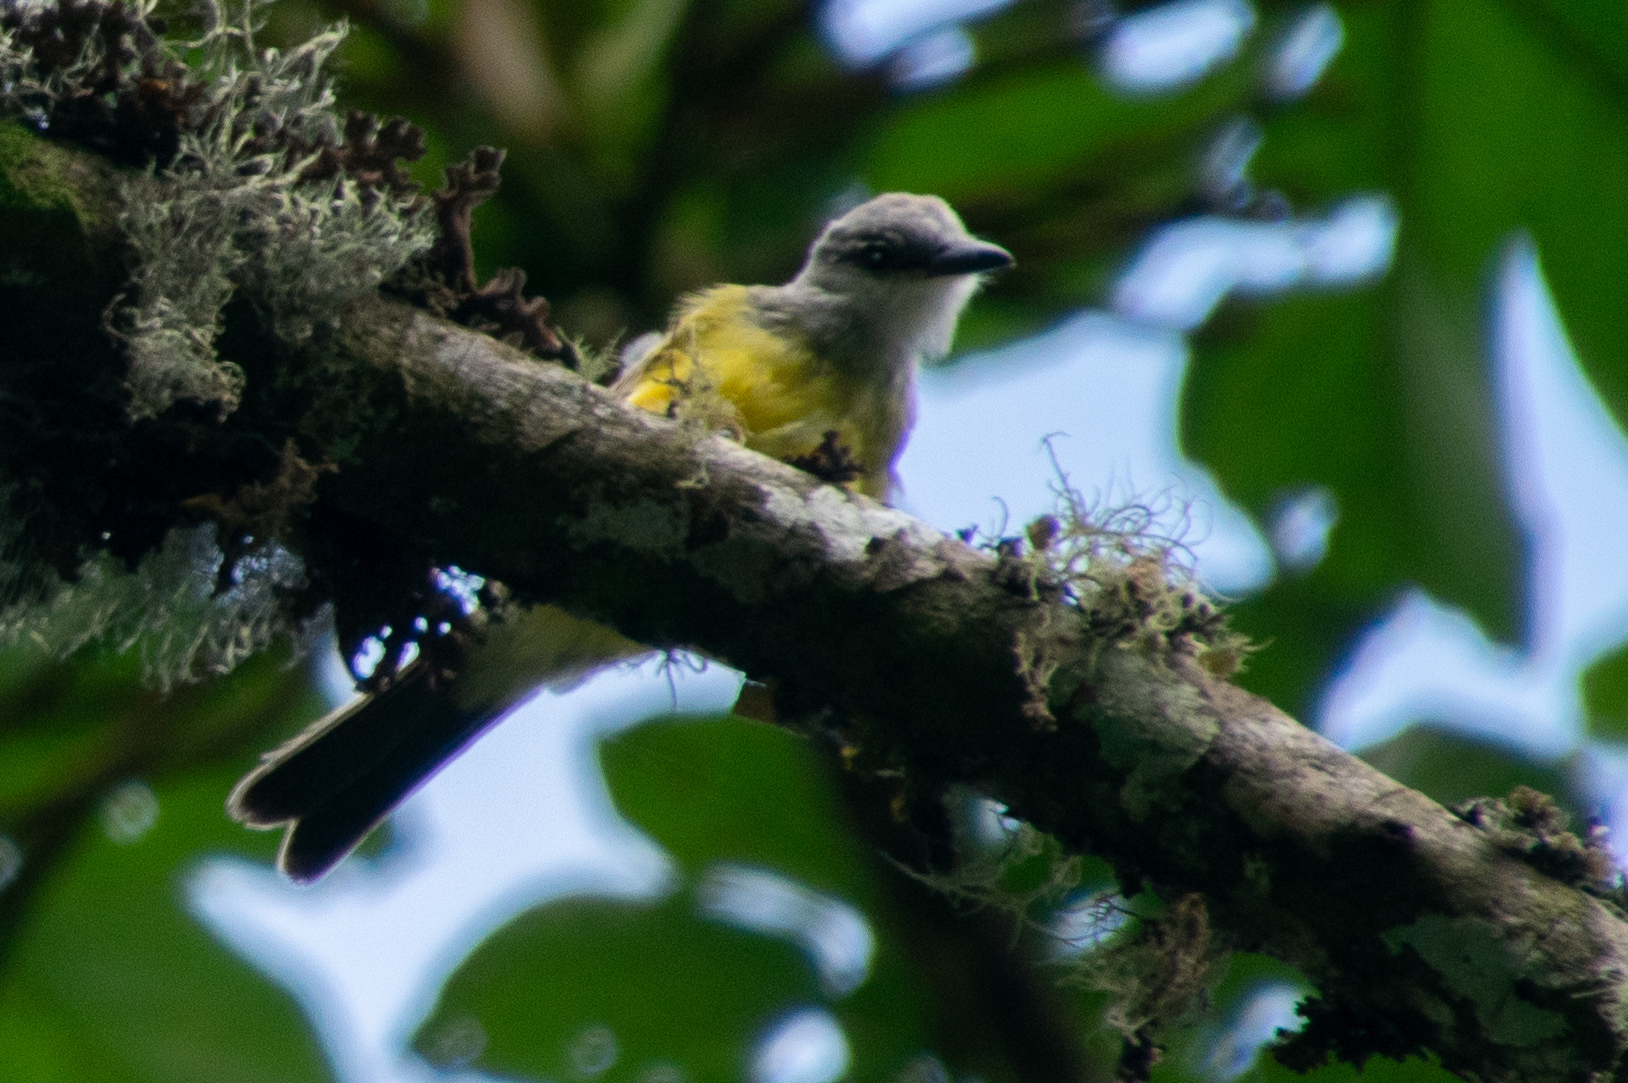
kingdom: Animalia
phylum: Chordata
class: Aves
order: Passeriformes
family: Tyrannidae
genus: Tyrannus
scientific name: Tyrannus melancholicus
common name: Tropical kingbird
